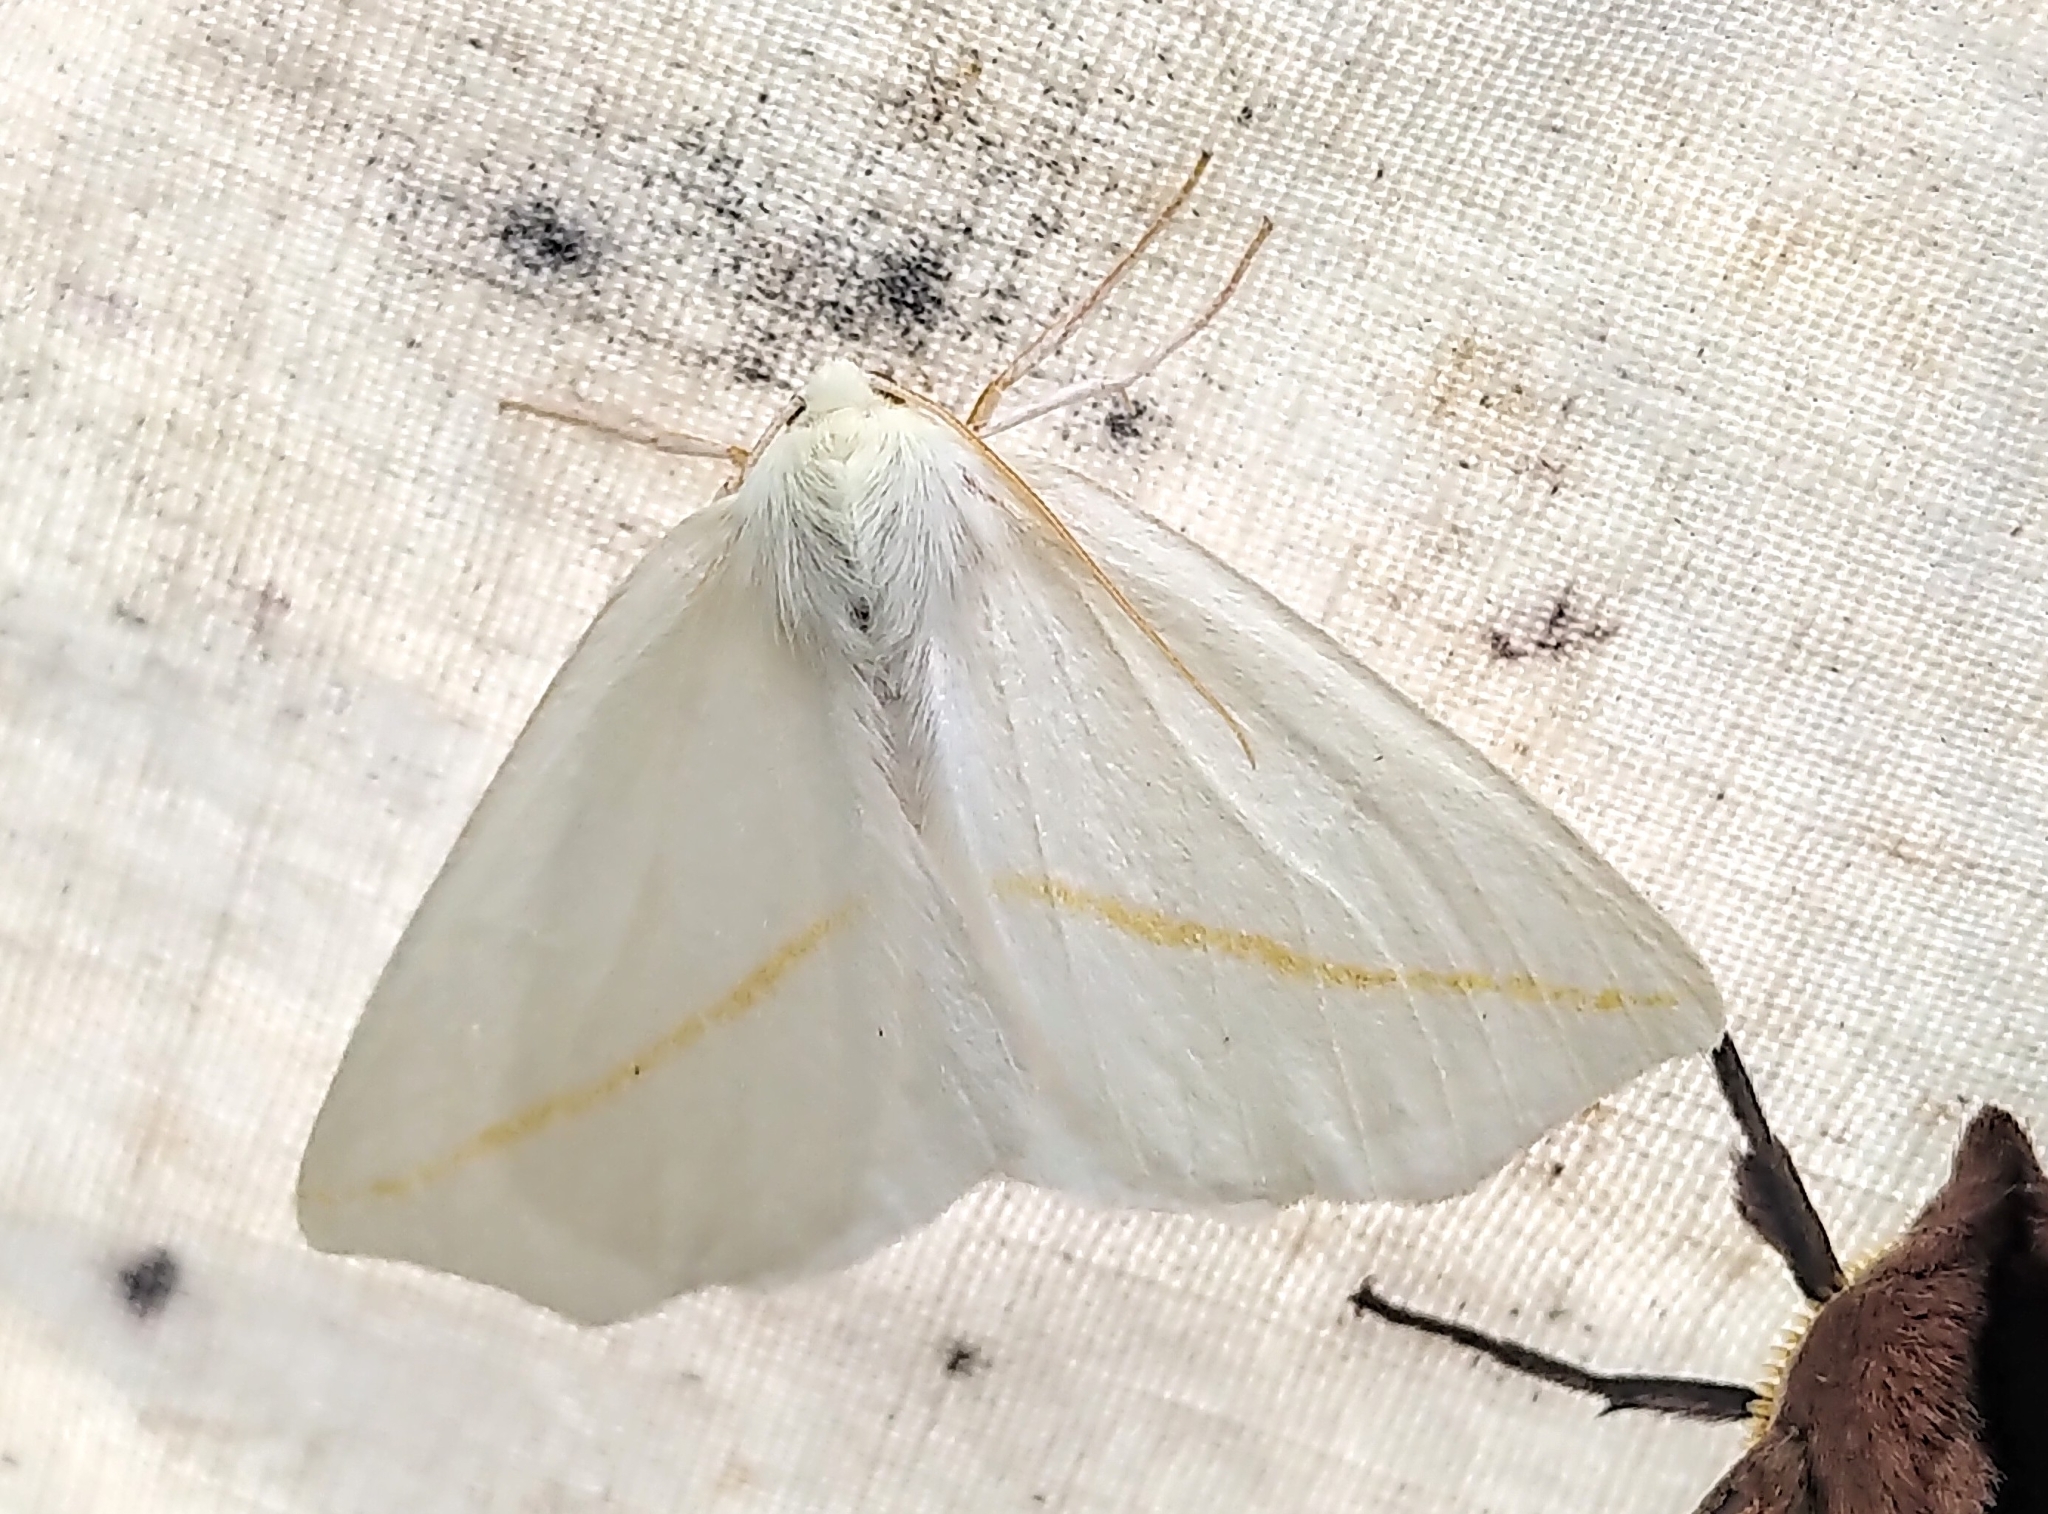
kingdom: Animalia
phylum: Arthropoda
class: Insecta
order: Lepidoptera
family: Geometridae
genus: Tetracis
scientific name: Tetracis cachexiata
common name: White slant-line
